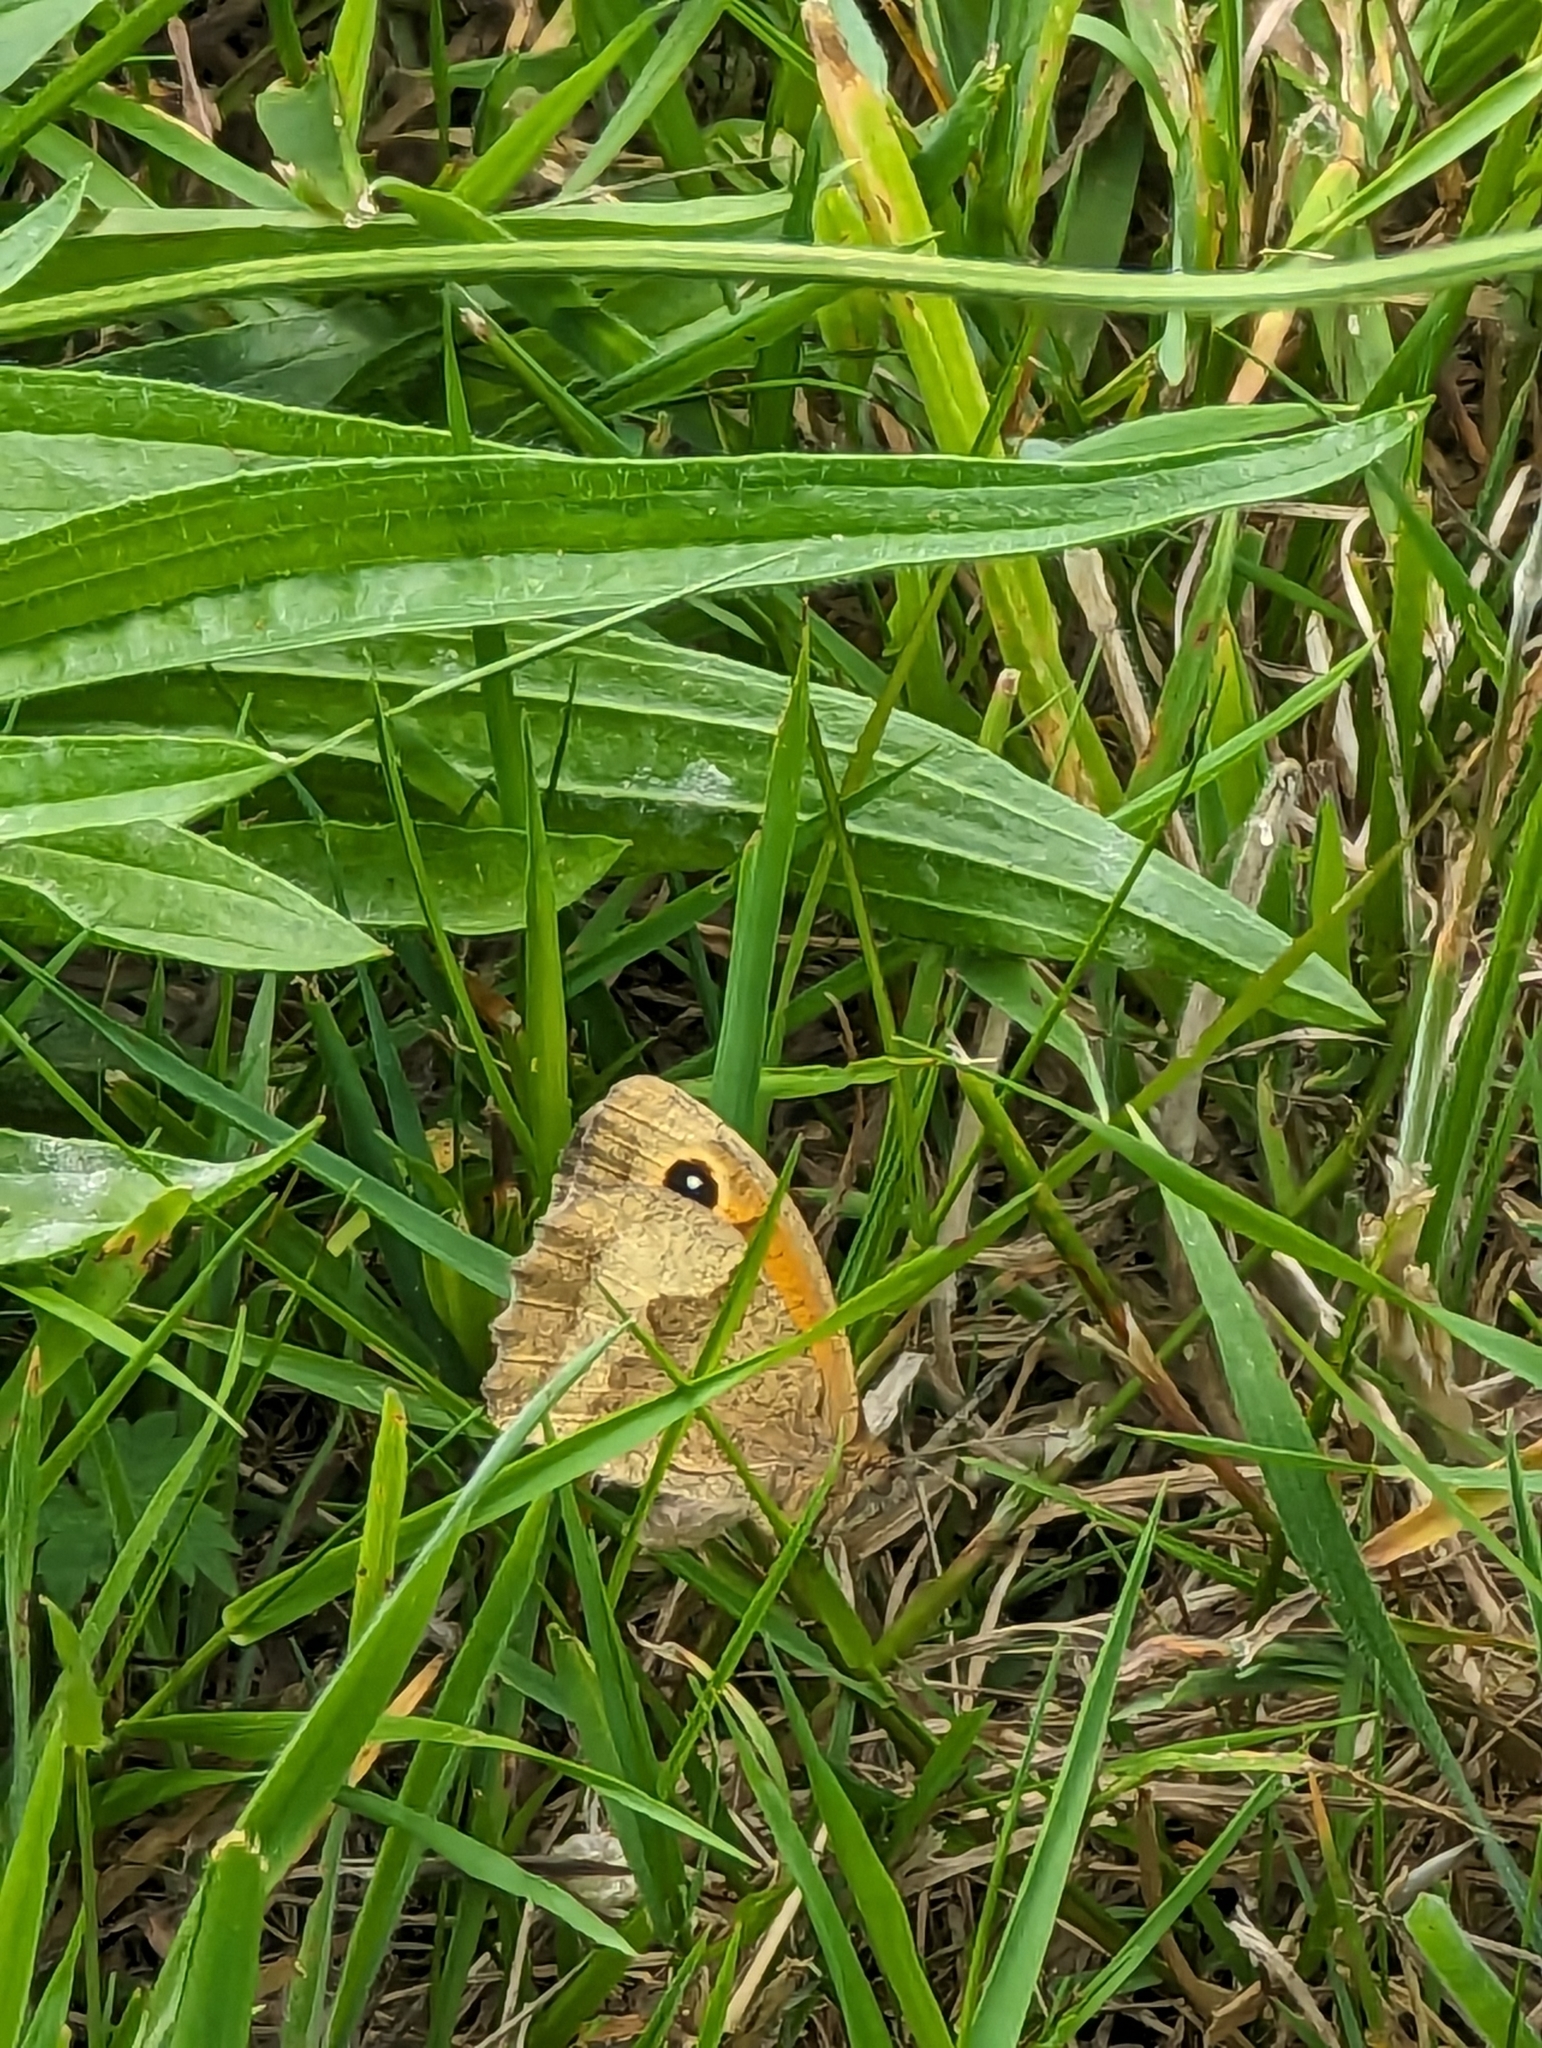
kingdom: Animalia
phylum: Arthropoda
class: Insecta
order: Lepidoptera
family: Nymphalidae
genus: Maniola
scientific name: Maniola jurtina
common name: Meadow brown
